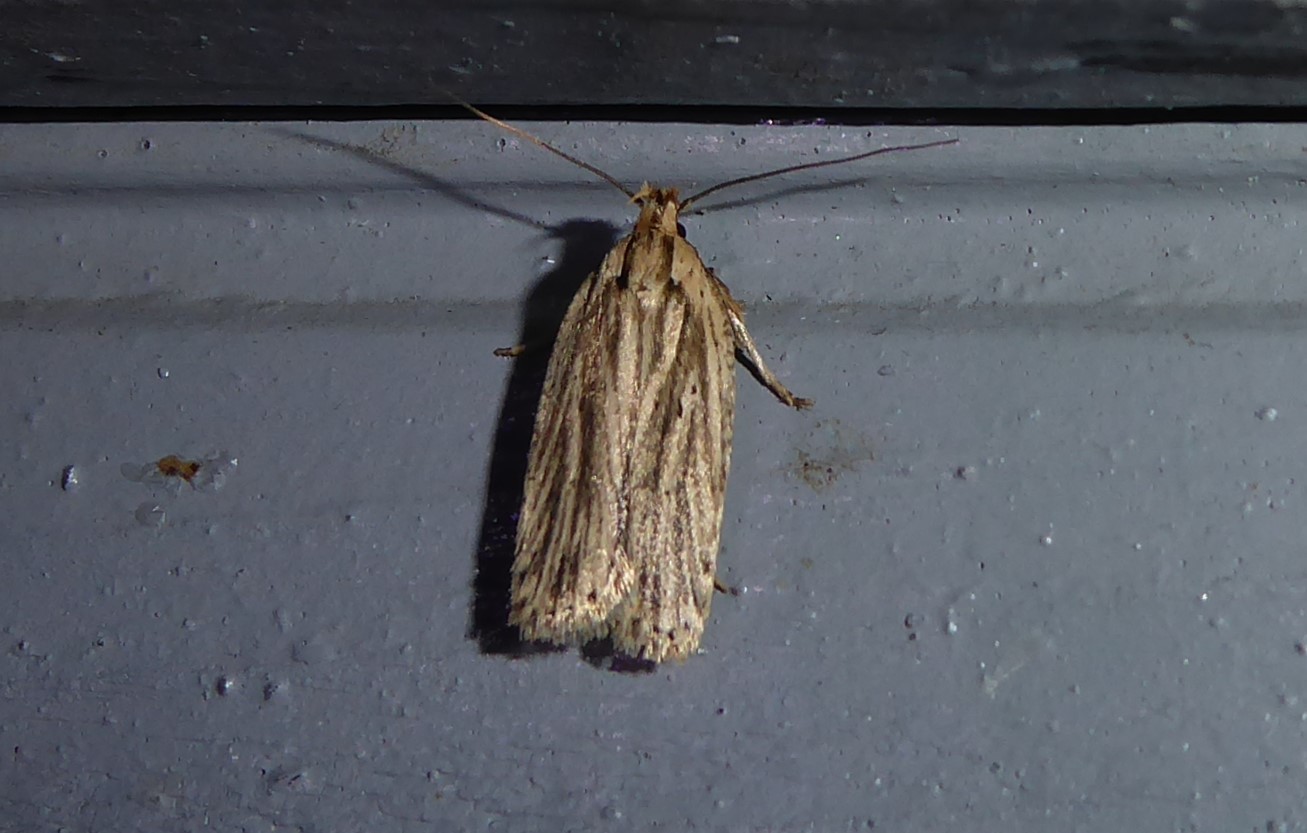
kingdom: Animalia
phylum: Arthropoda
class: Insecta
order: Lepidoptera
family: Depressariidae
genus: Agonopterix
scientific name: Agonopterix
